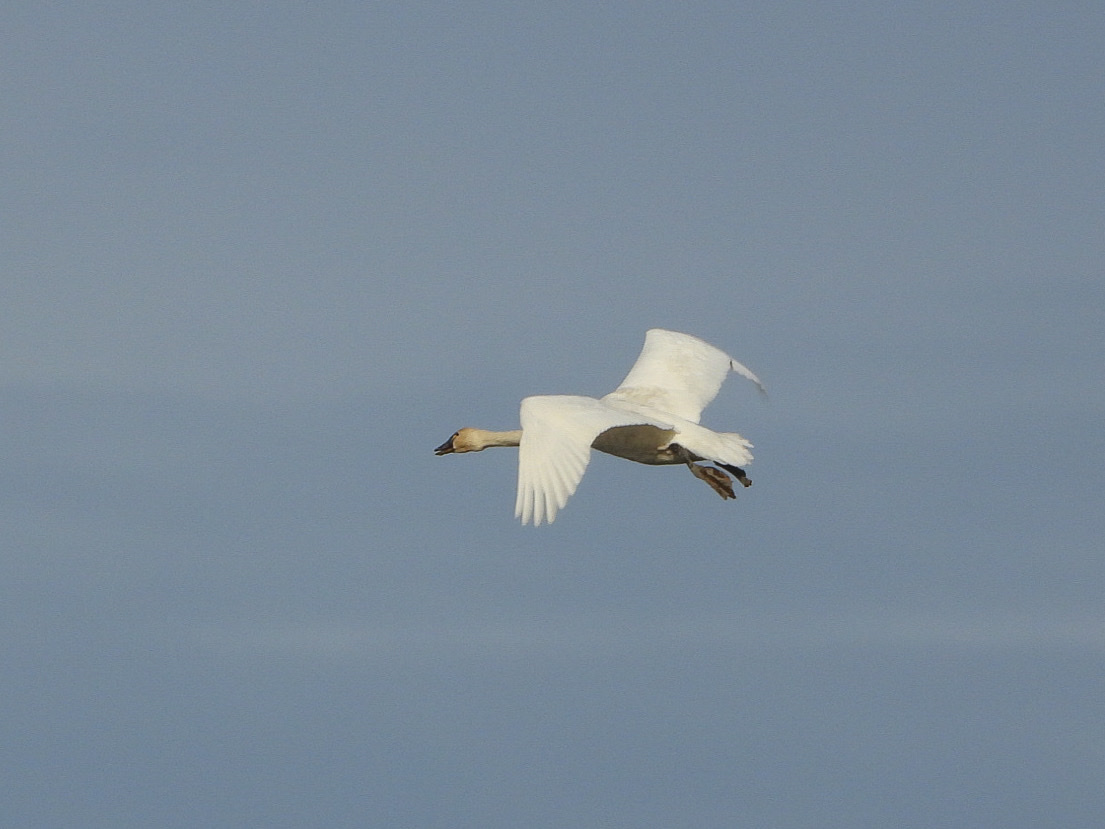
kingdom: Animalia
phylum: Chordata
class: Aves
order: Anseriformes
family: Anatidae
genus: Cygnus
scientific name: Cygnus columbianus
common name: Tundra swan
